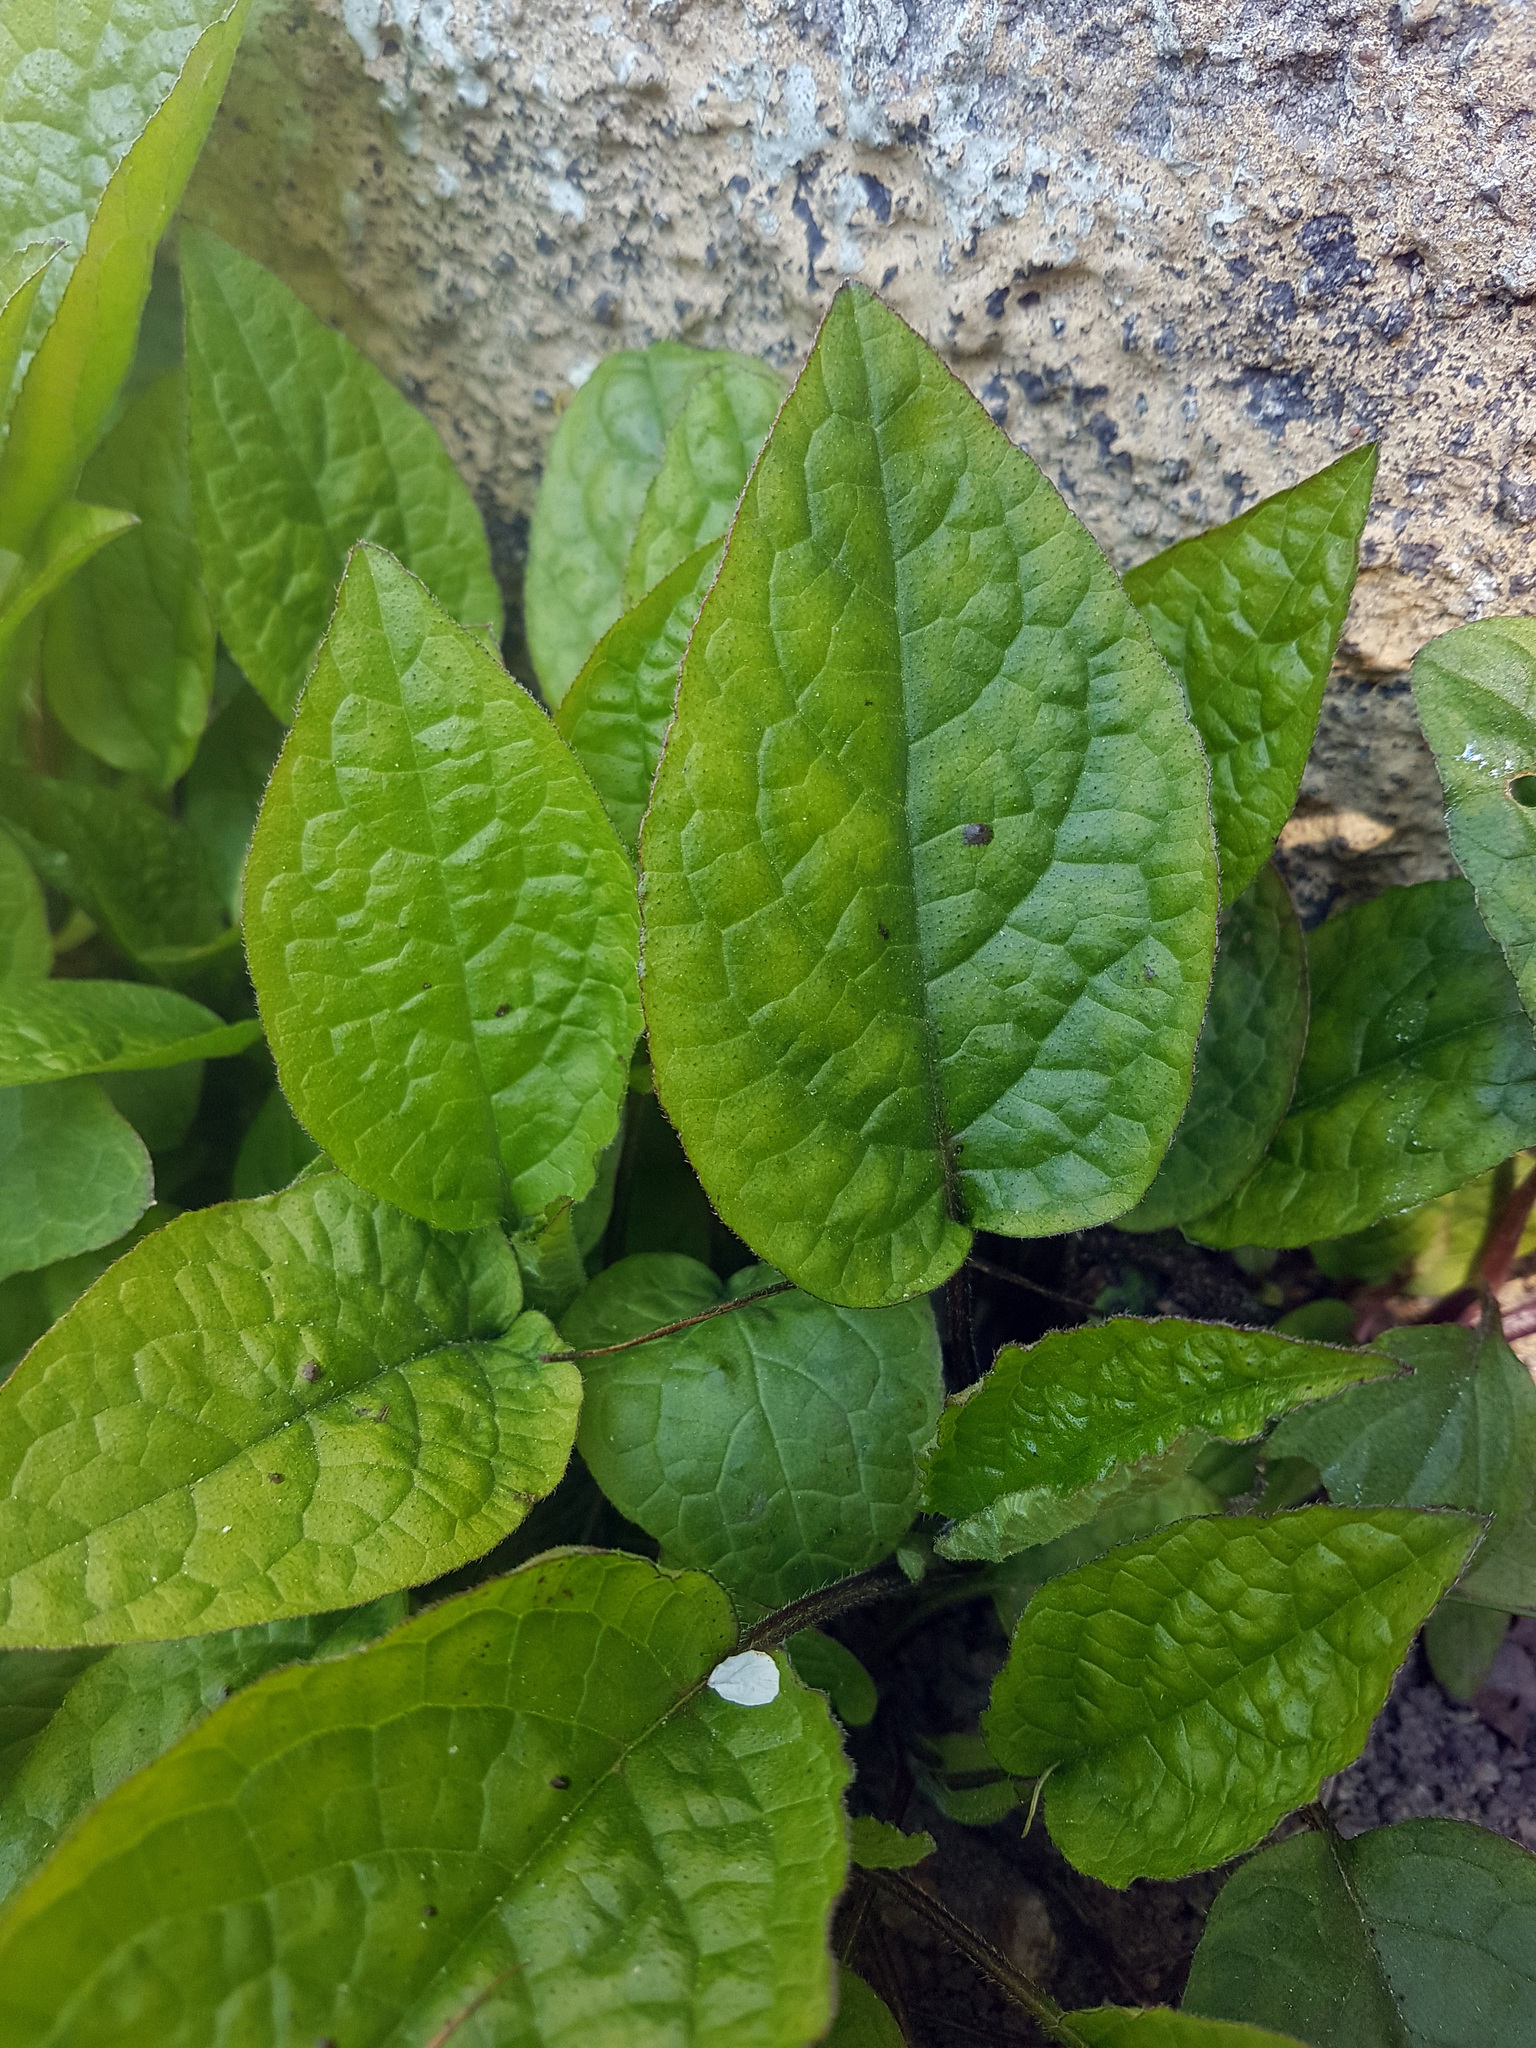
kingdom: Plantae
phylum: Tracheophyta
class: Magnoliopsida
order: Boraginales
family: Boraginaceae
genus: Symphytum
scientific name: Symphytum grandiflorum
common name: Creeping comfrey
